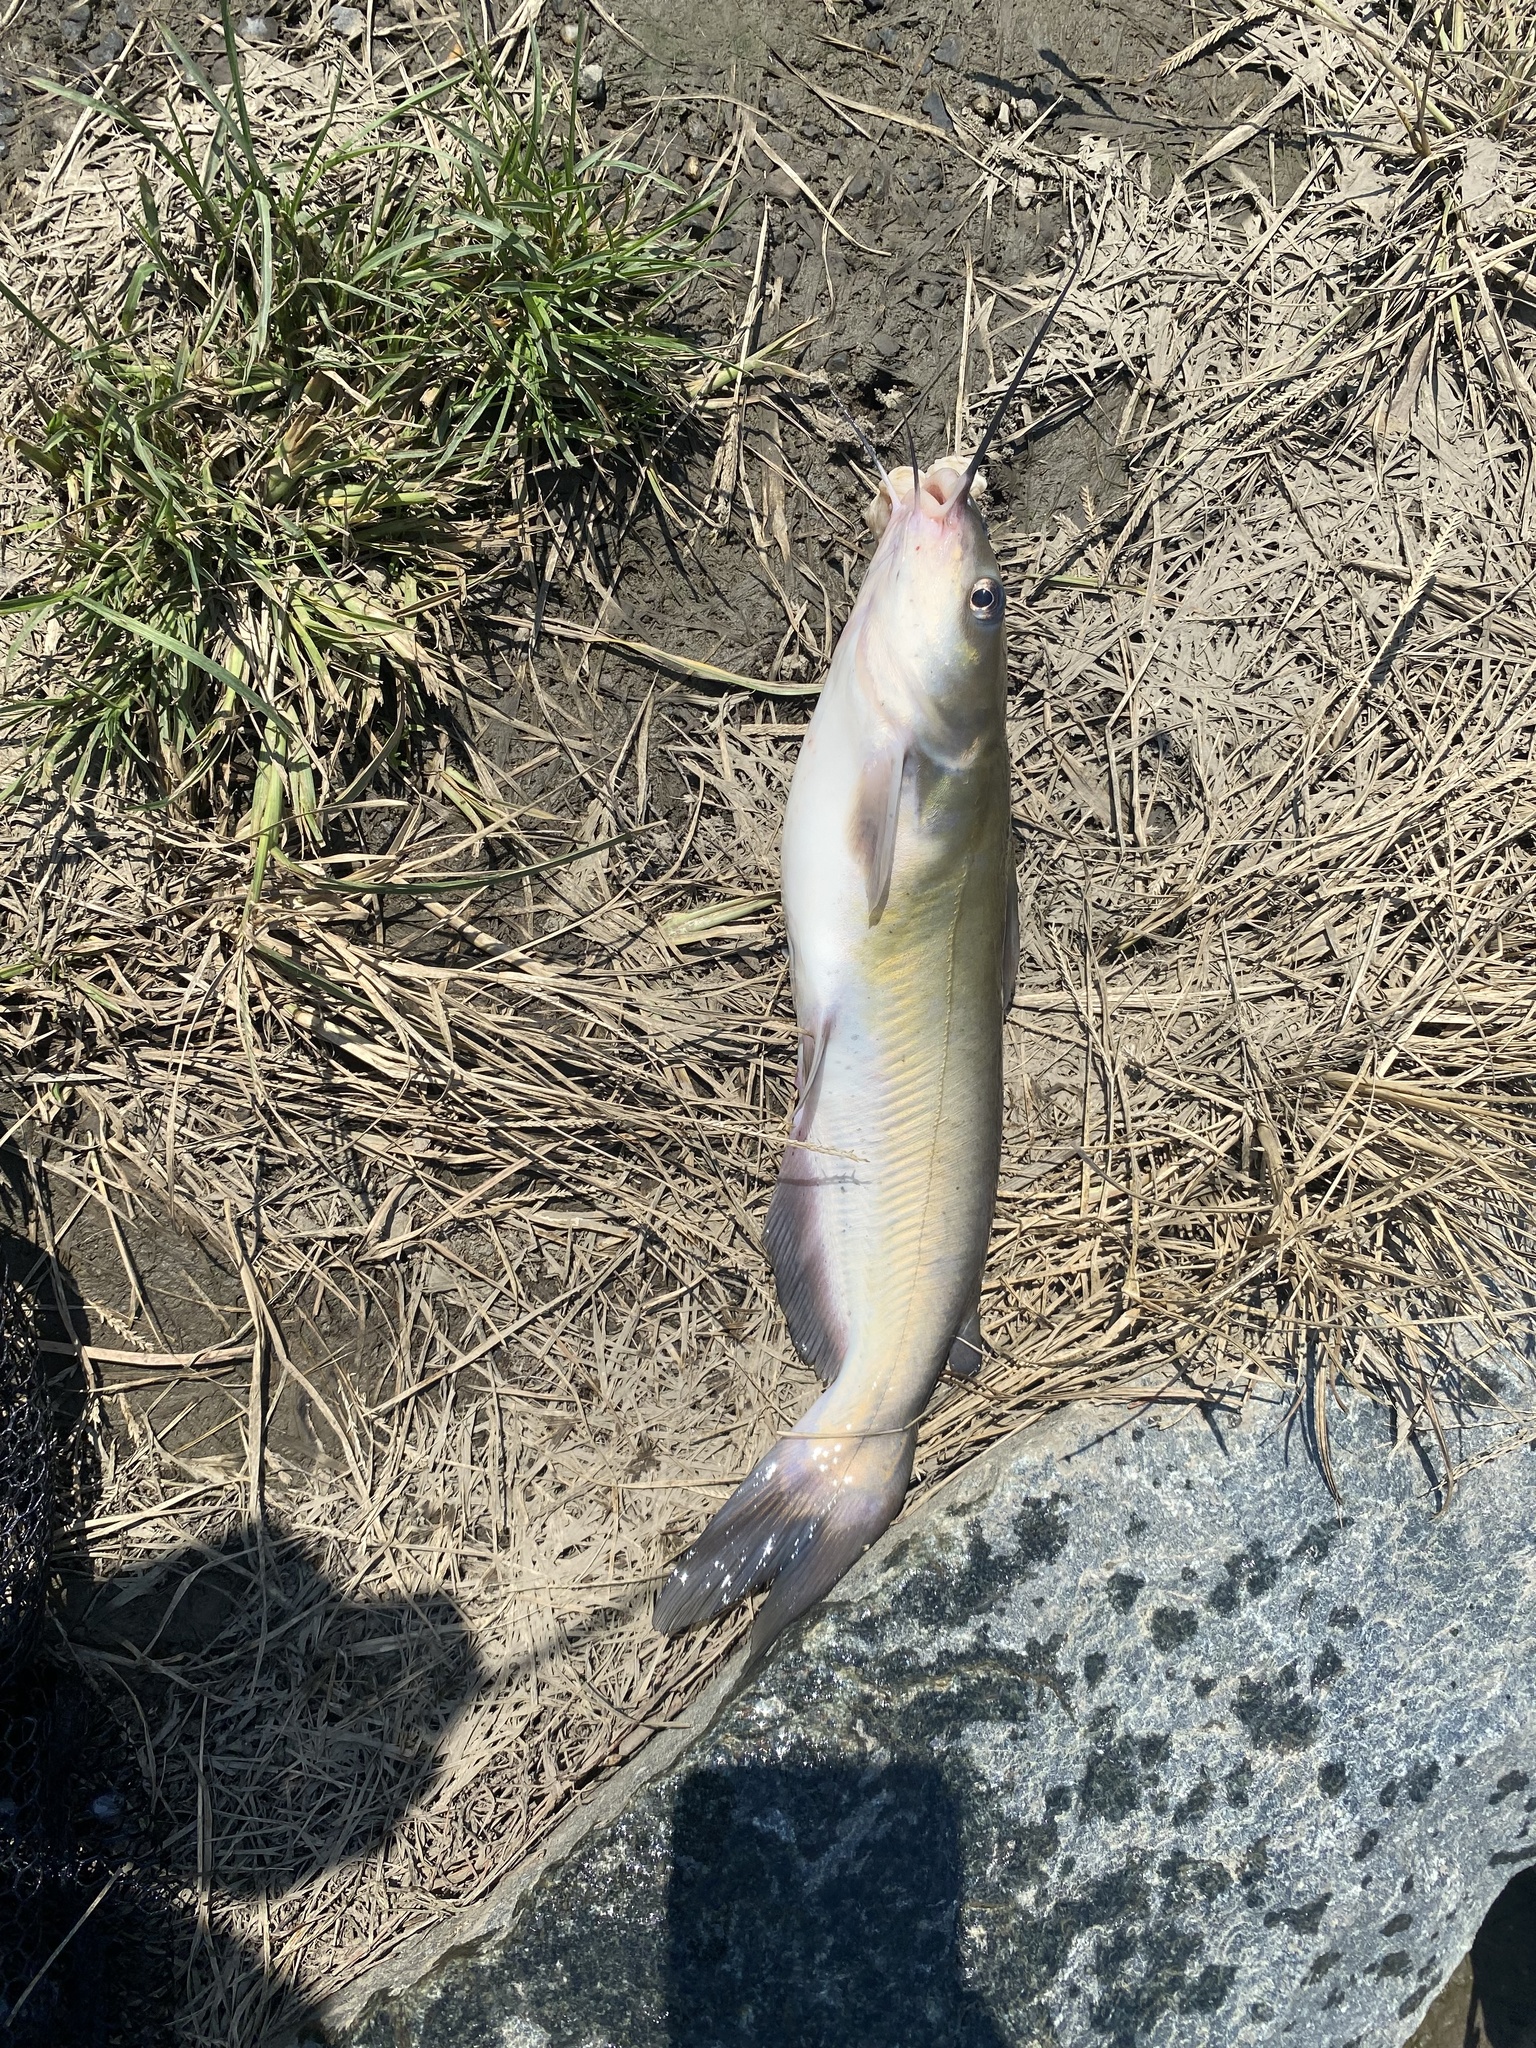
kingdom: Animalia
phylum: Chordata
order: Siluriformes
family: Ictaluridae
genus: Ictalurus
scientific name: Ictalurus punctatus
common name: Channel catfish
